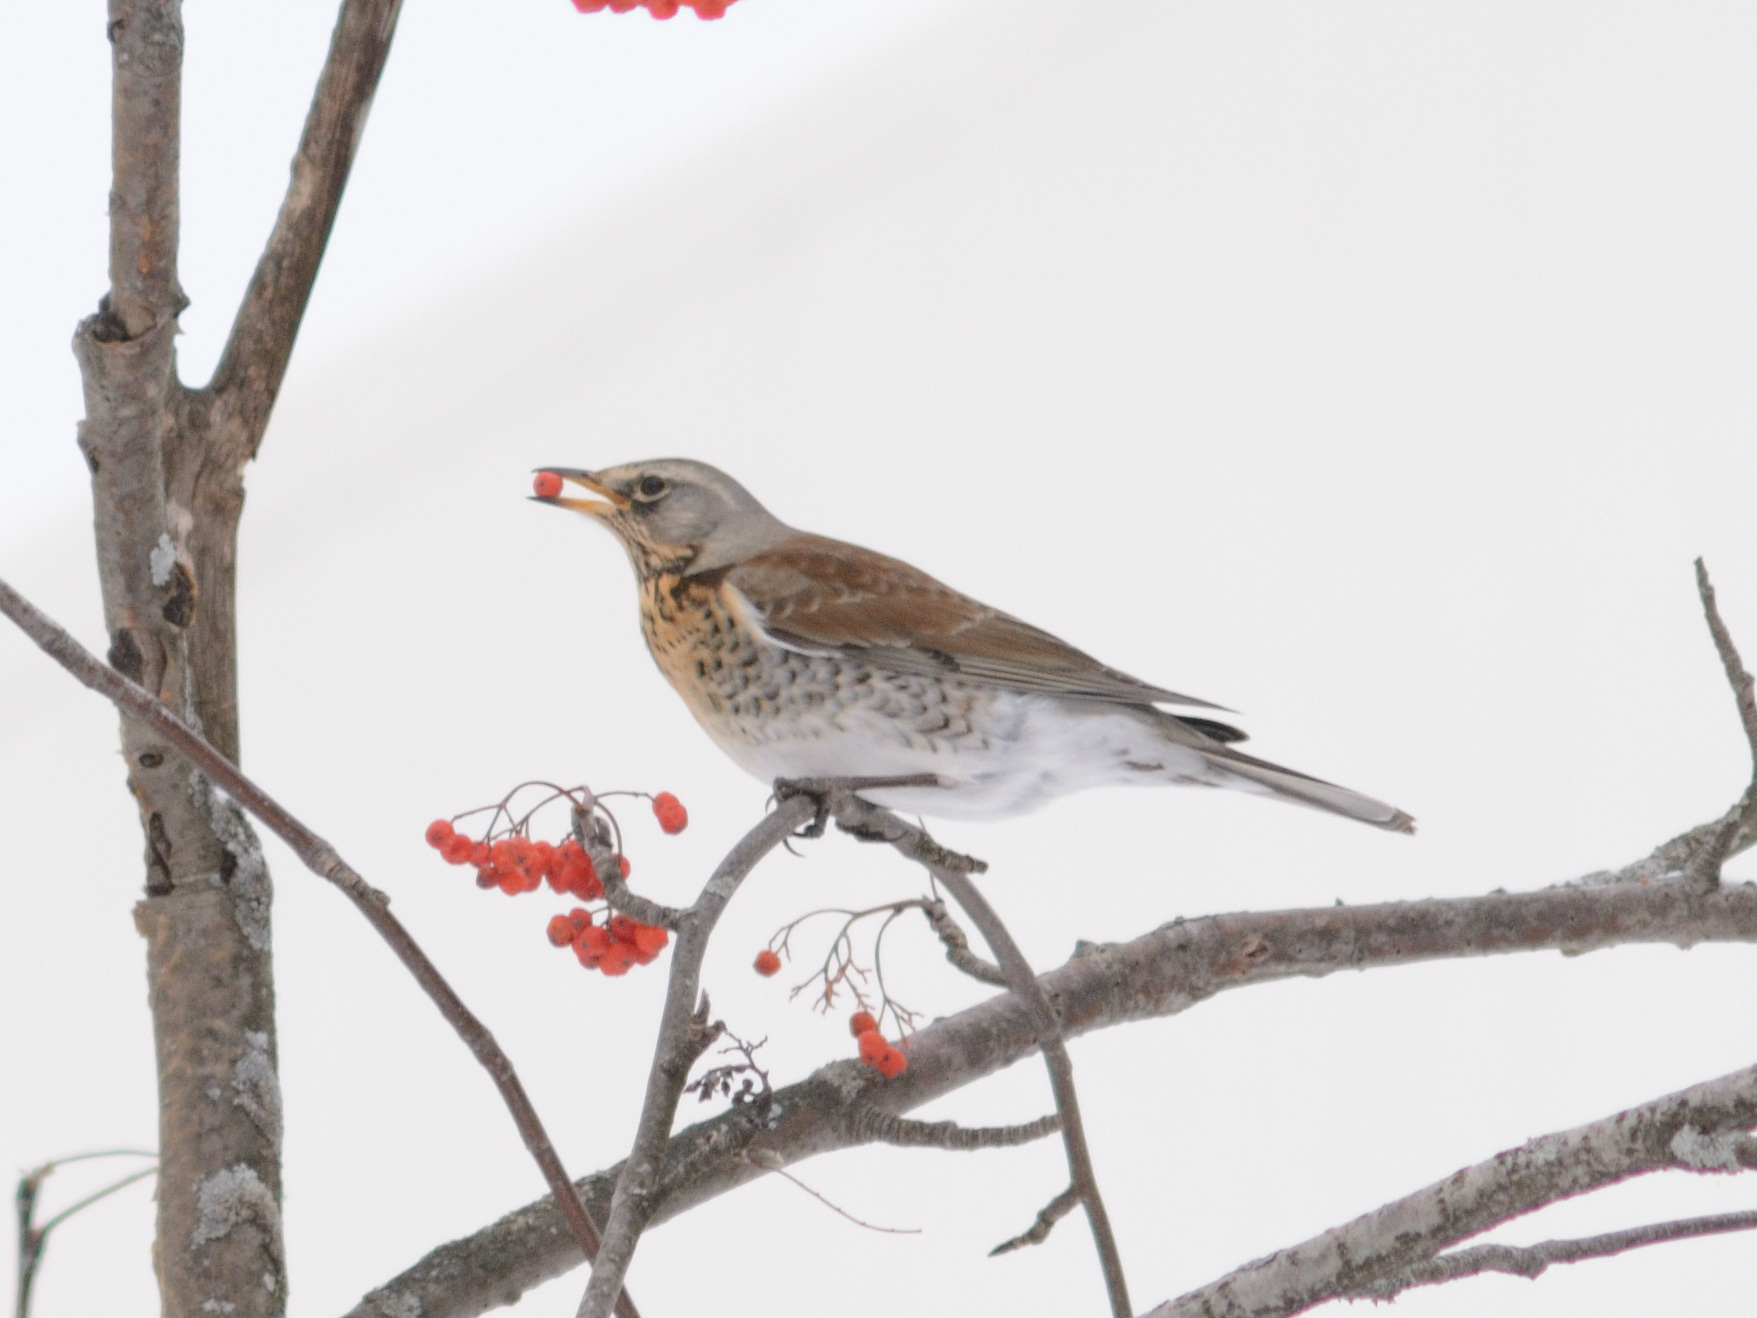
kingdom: Animalia
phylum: Chordata
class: Aves
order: Passeriformes
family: Turdidae
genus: Turdus
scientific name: Turdus pilaris
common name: Fieldfare
